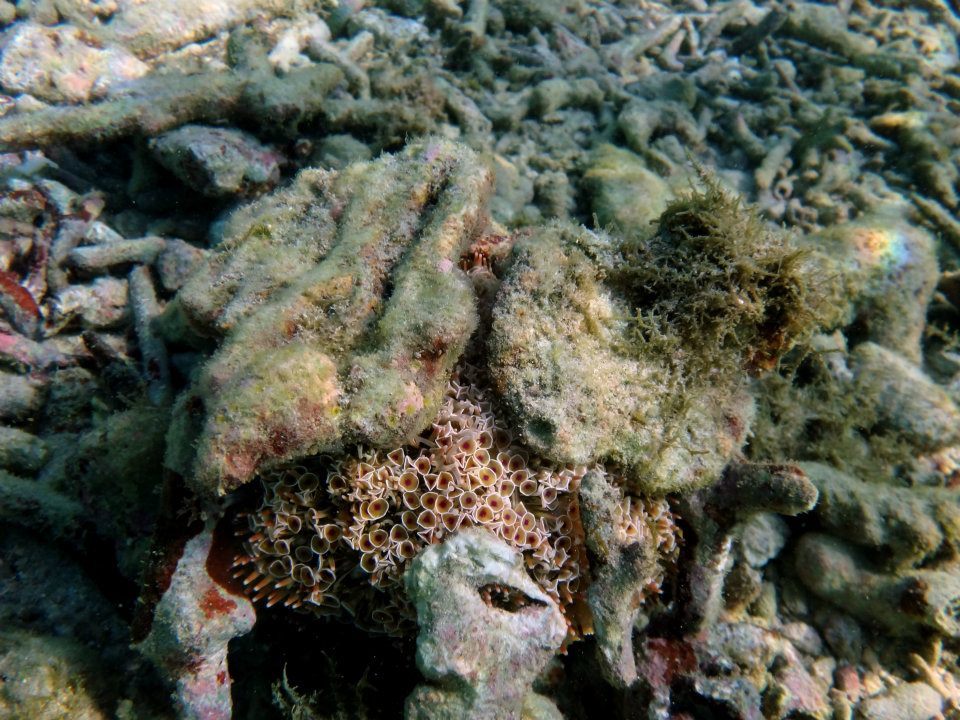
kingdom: Animalia
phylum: Echinodermata
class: Echinoidea
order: Camarodonta
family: Toxopneustidae
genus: Toxopneustes
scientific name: Toxopneustes pileolus
